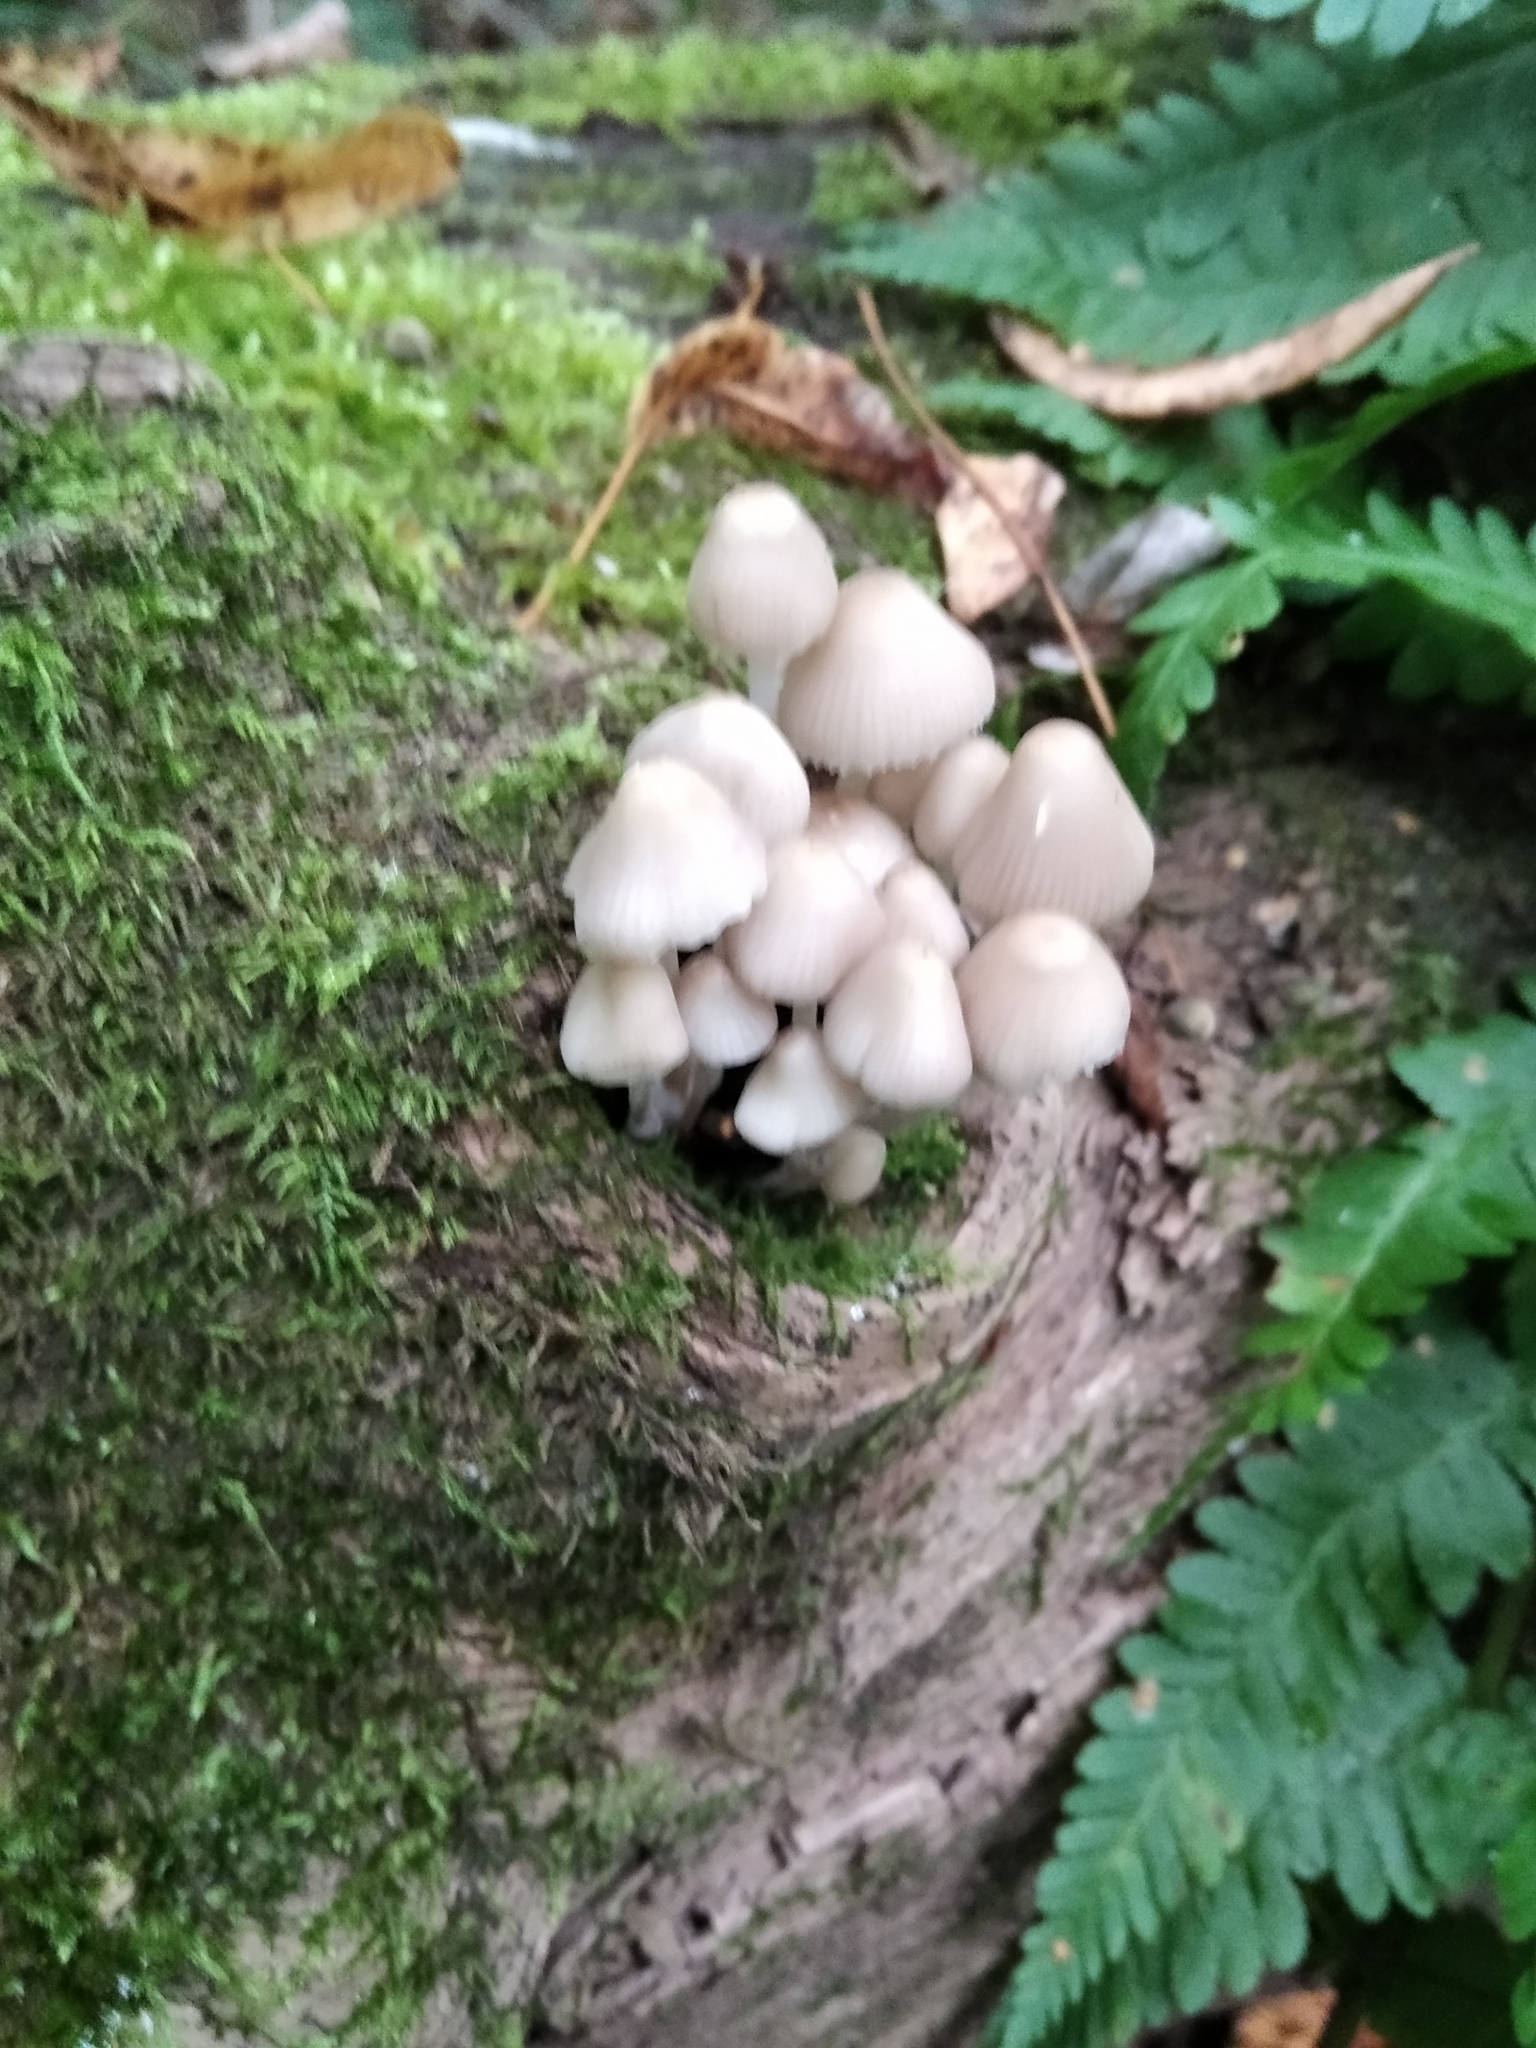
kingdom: Fungi
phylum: Basidiomycota
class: Agaricomycetes
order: Agaricales
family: Mycenaceae
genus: Mycena
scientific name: Mycena galericulata
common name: Bonnet mycena
